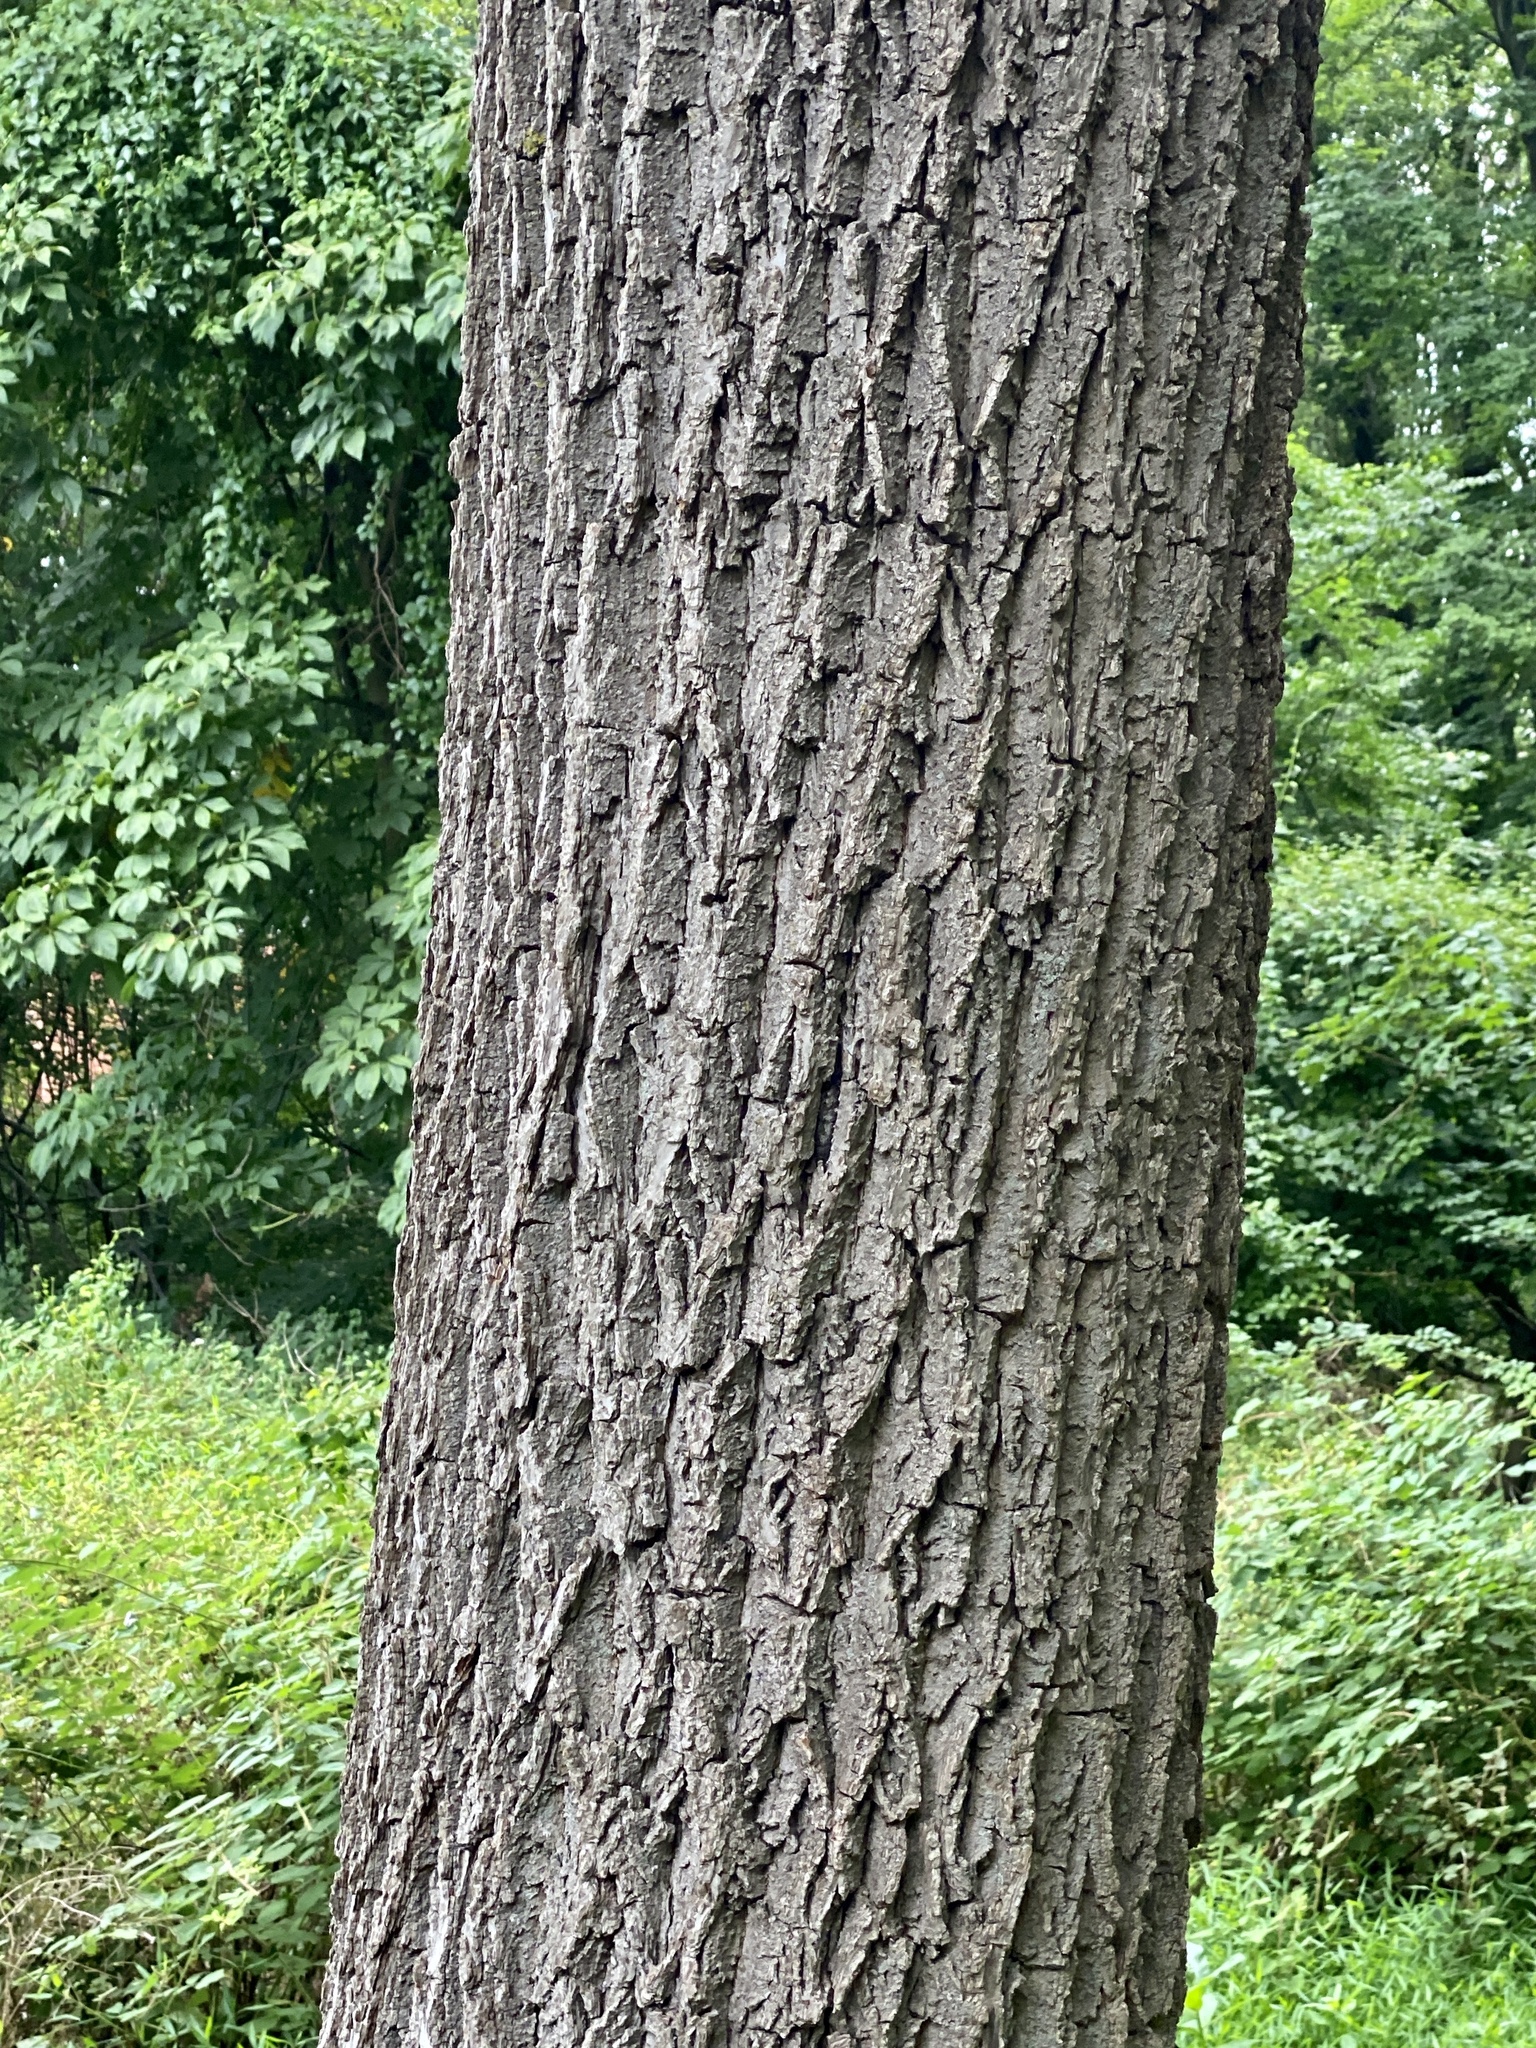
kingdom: Plantae
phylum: Tracheophyta
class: Magnoliopsida
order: Fagales
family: Juglandaceae
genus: Juglans
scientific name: Juglans nigra
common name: Black walnut
